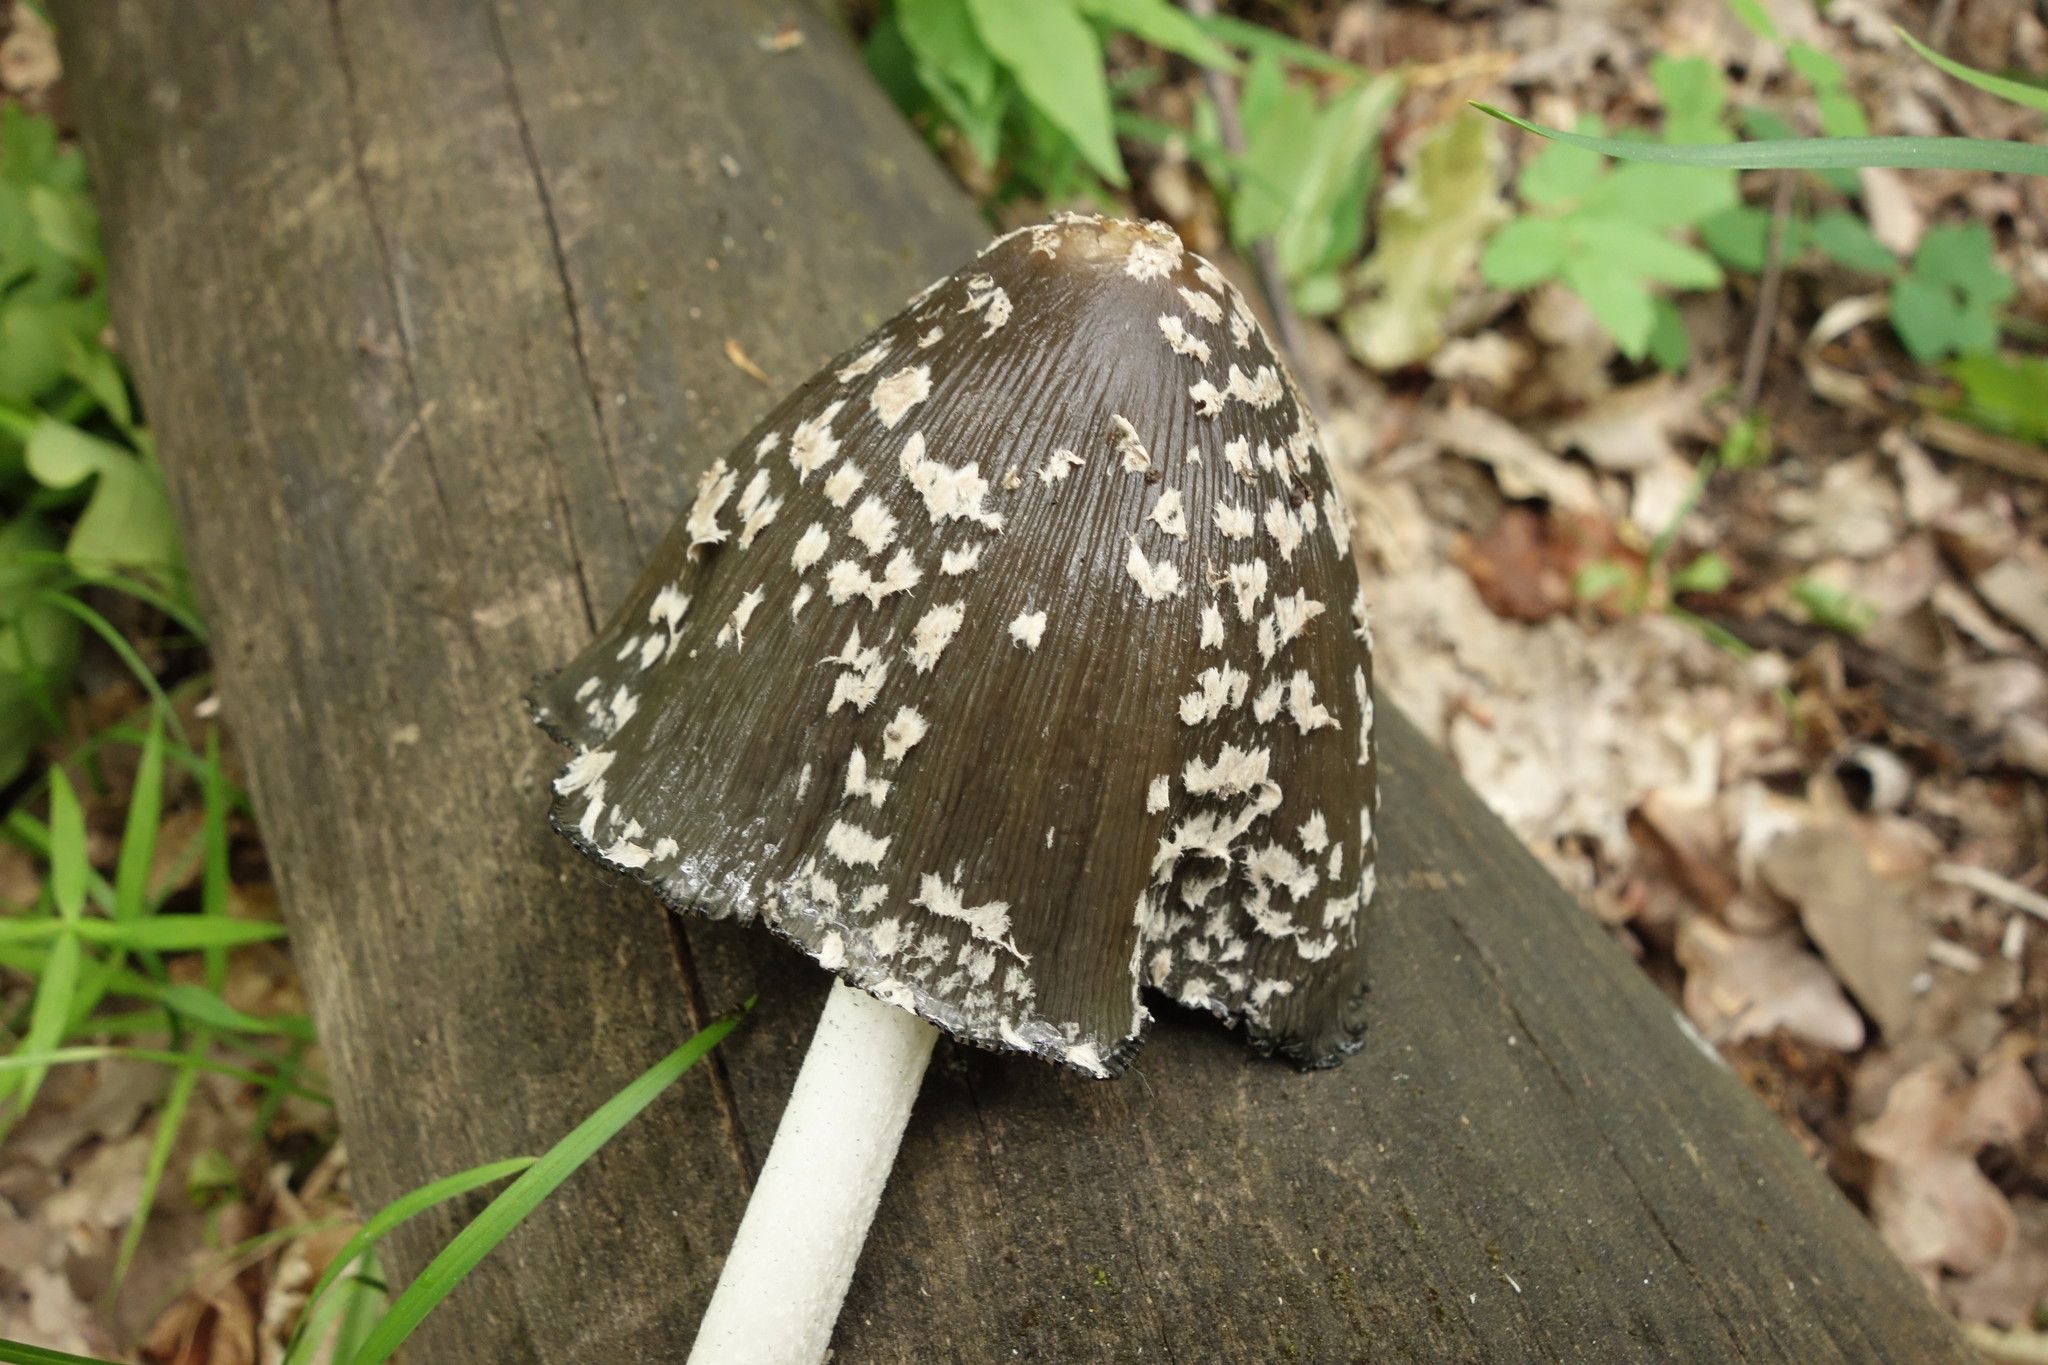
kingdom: Fungi
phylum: Basidiomycota
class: Agaricomycetes
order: Agaricales
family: Psathyrellaceae
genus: Coprinopsis
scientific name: Coprinopsis picacea
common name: Magpie inkcap
